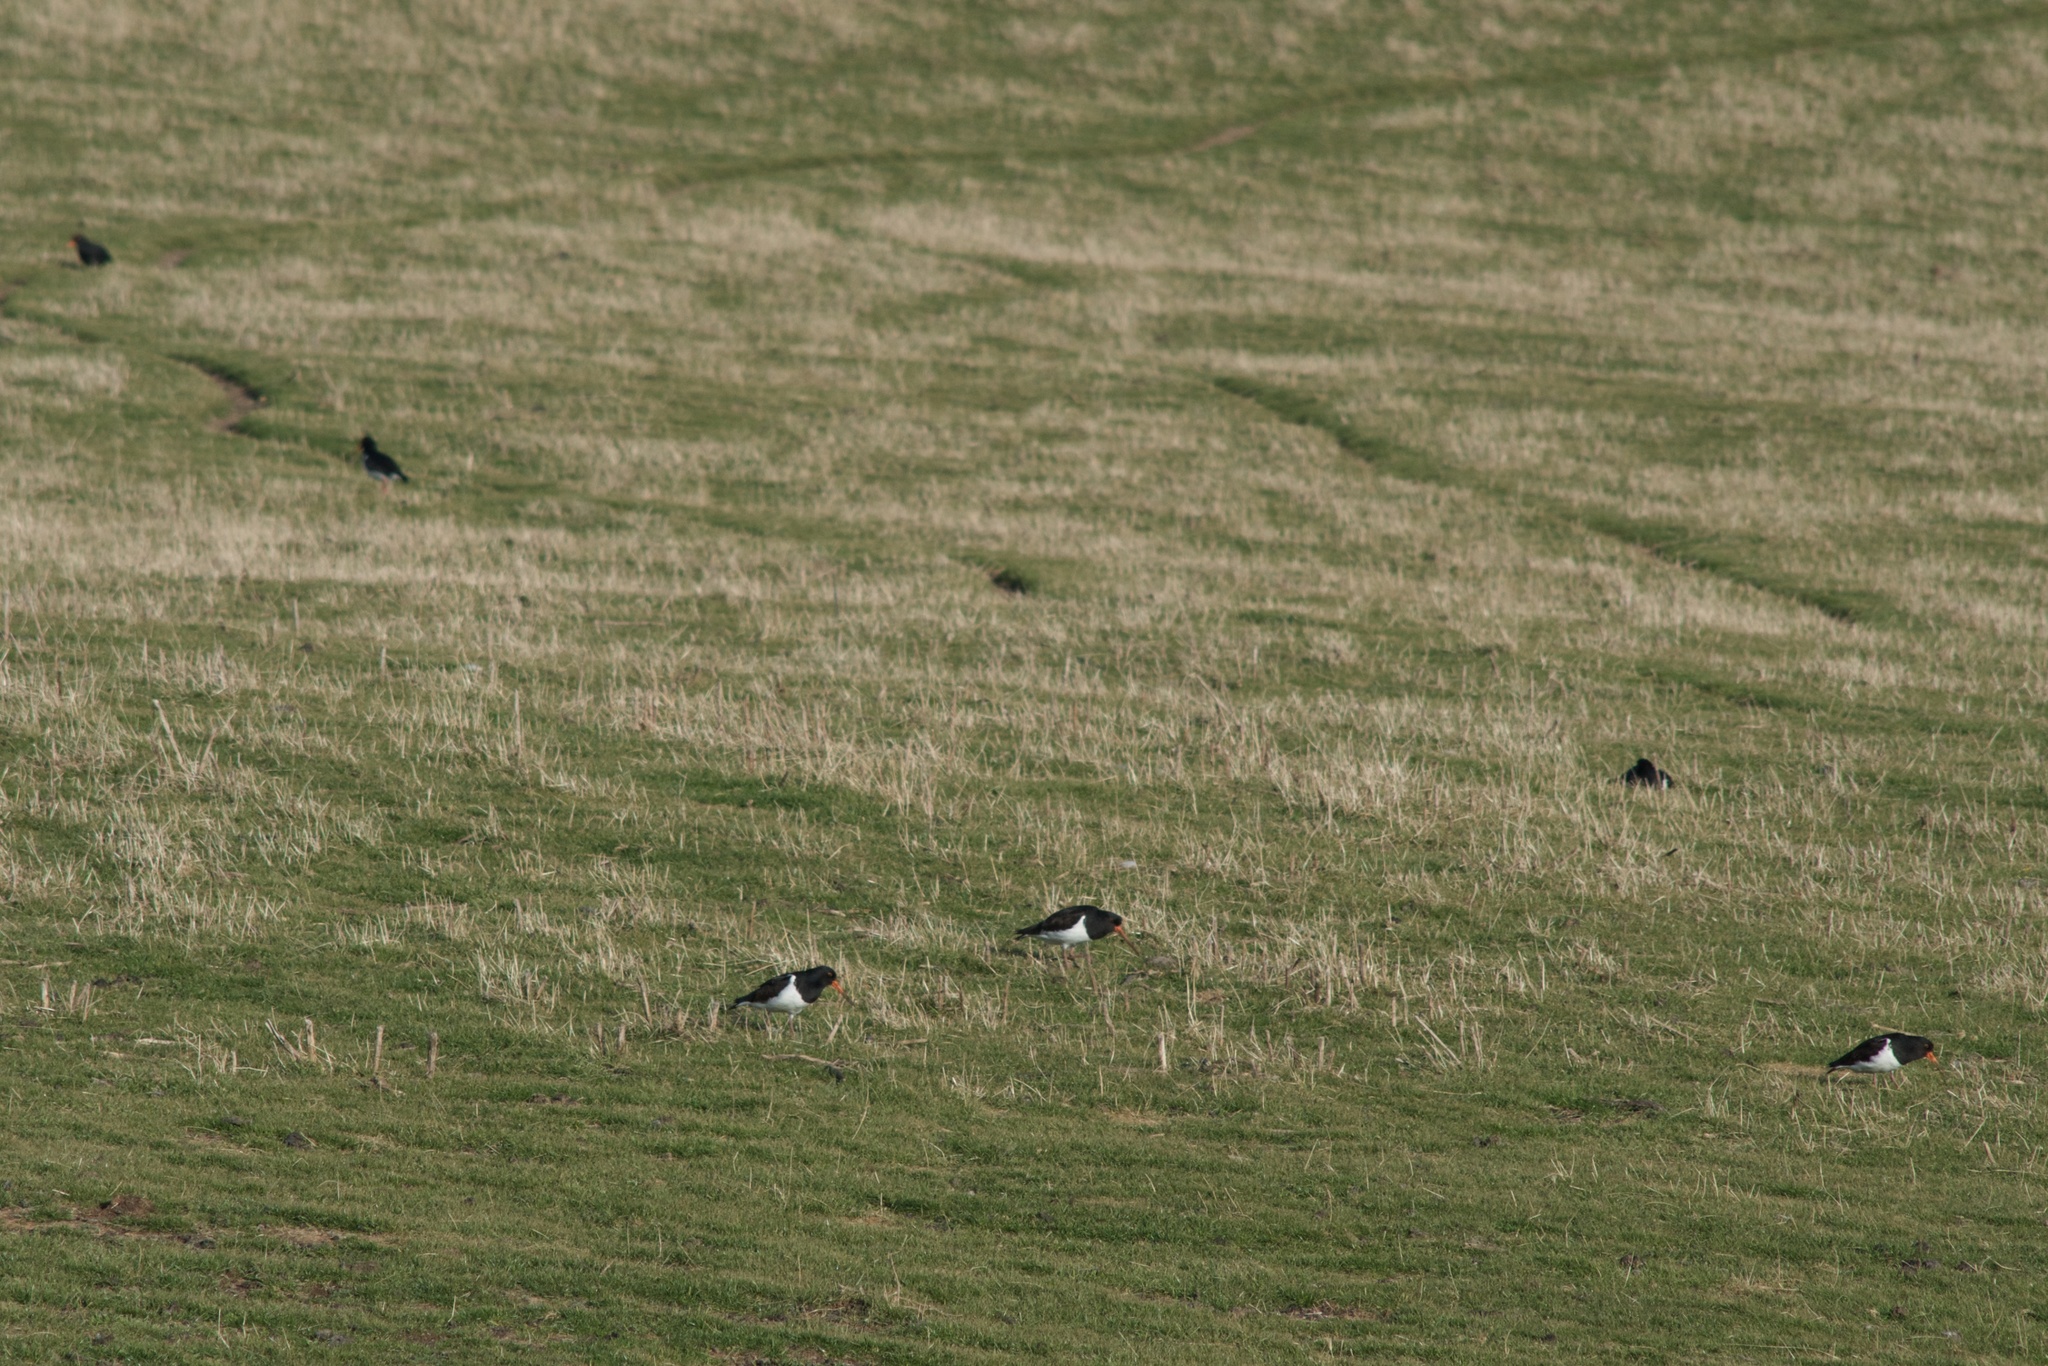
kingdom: Animalia
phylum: Chordata
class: Aves
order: Charadriiformes
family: Haematopodidae
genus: Haematopus
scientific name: Haematopus finschi
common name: South island oystercatcher
